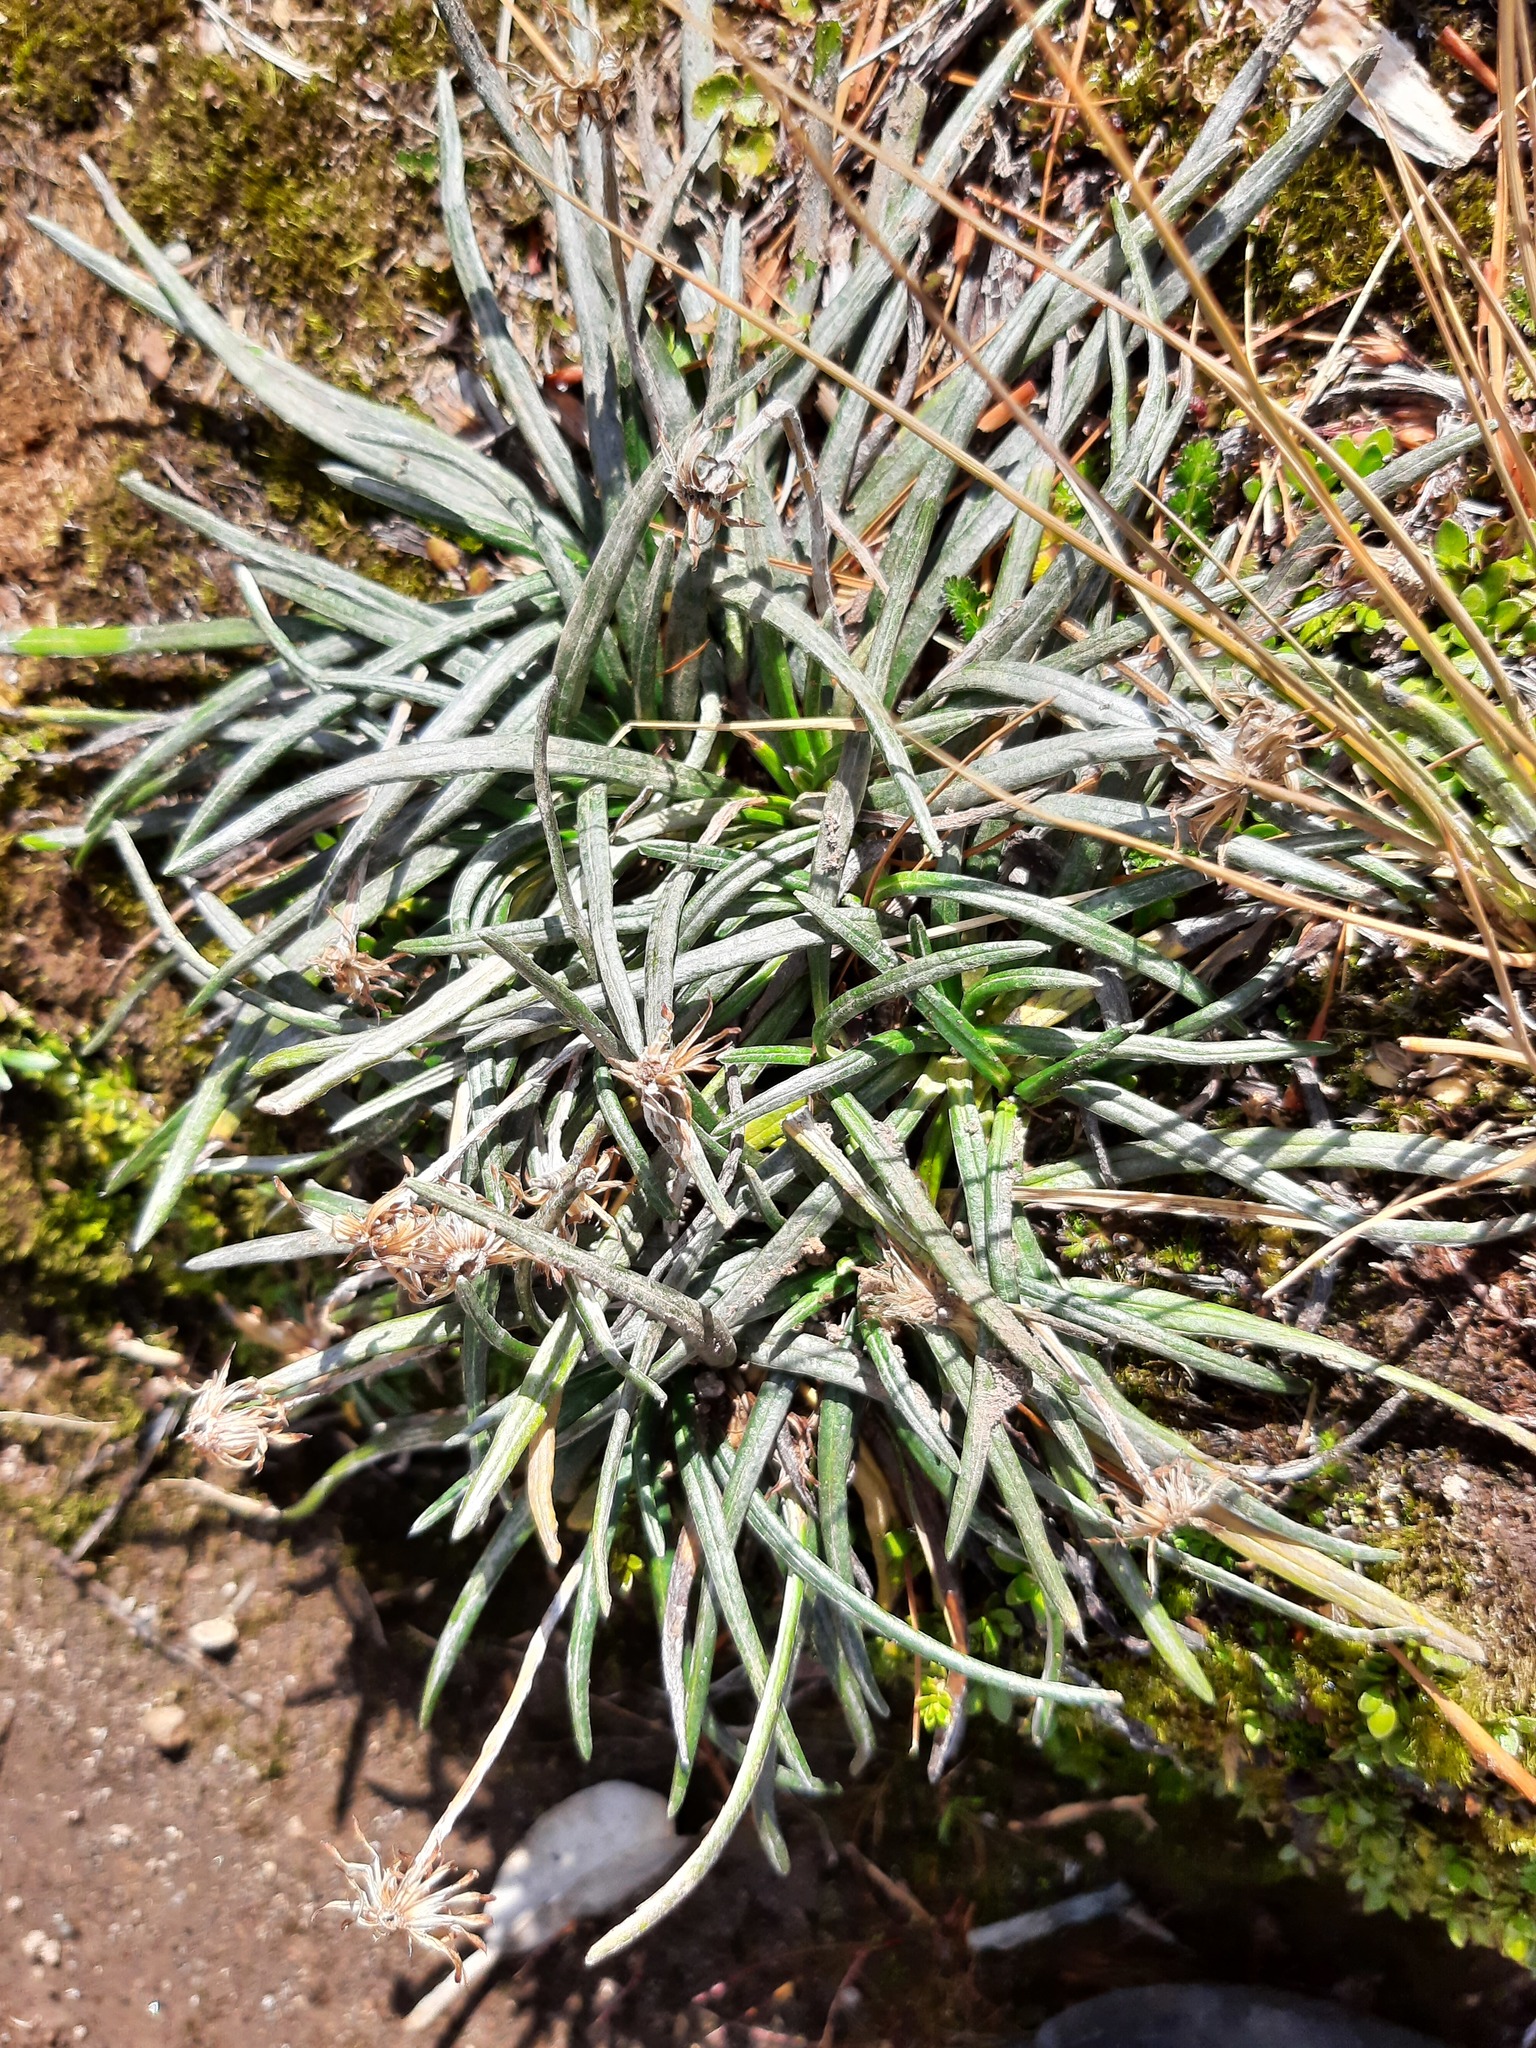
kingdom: Plantae
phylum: Tracheophyta
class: Magnoliopsida
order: Asterales
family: Asteraceae
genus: Celmisia
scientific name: Celmisia major
